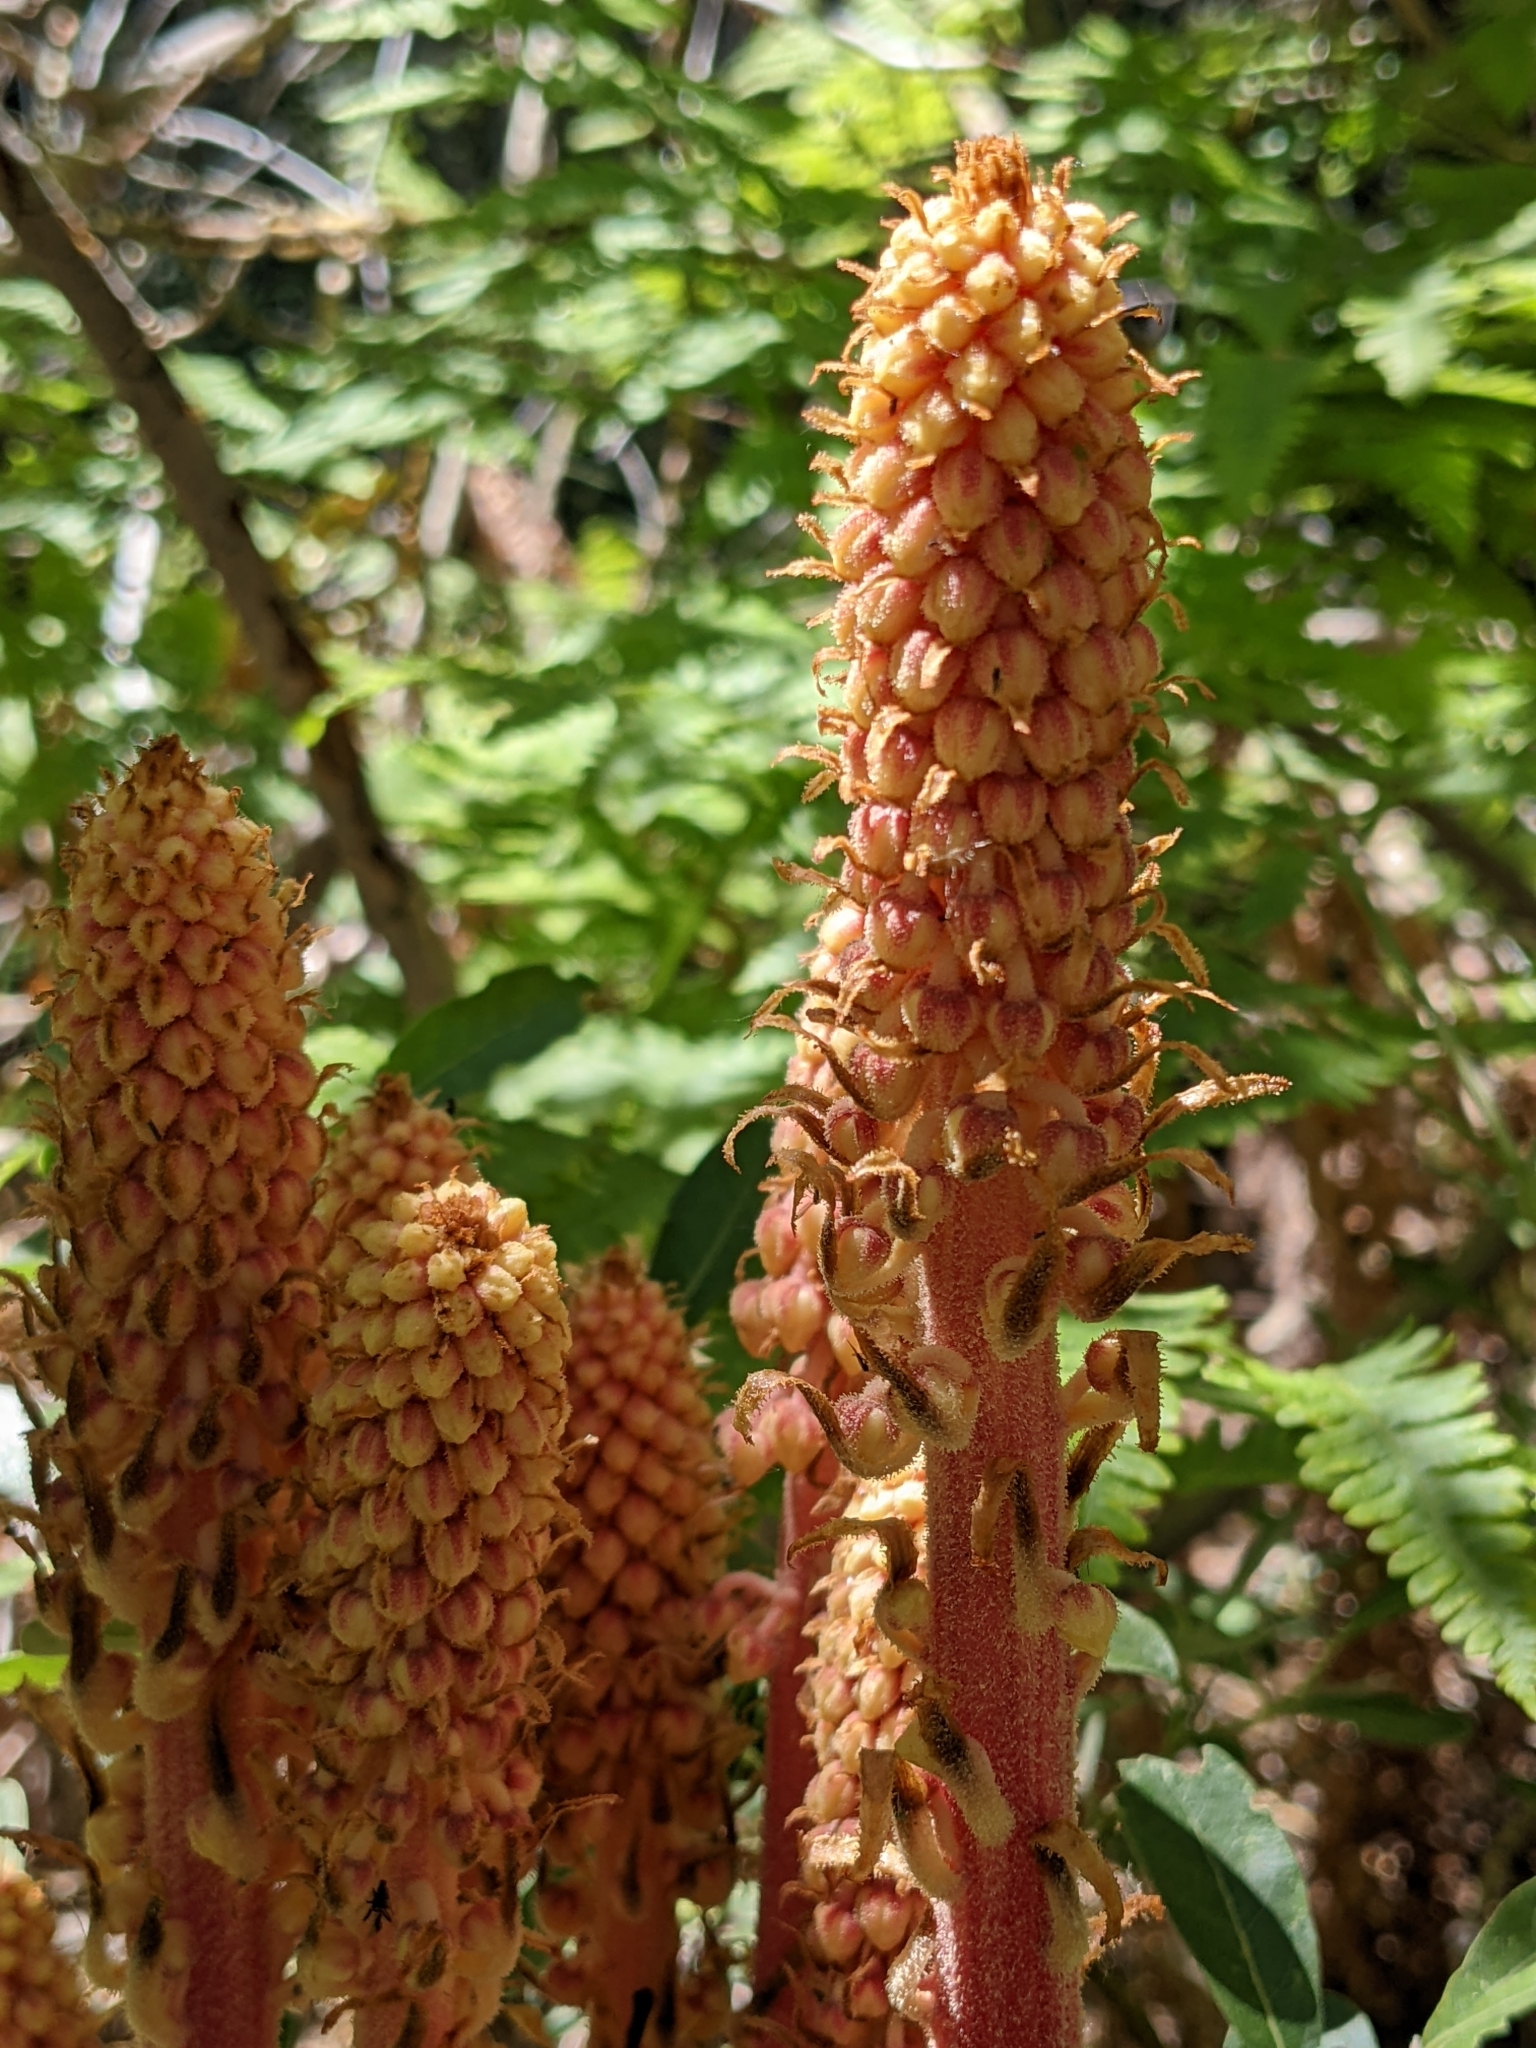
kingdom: Plantae
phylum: Tracheophyta
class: Magnoliopsida
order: Ericales
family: Ericaceae
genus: Pterospora
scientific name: Pterospora andromedea
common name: Giant bird's-nest
